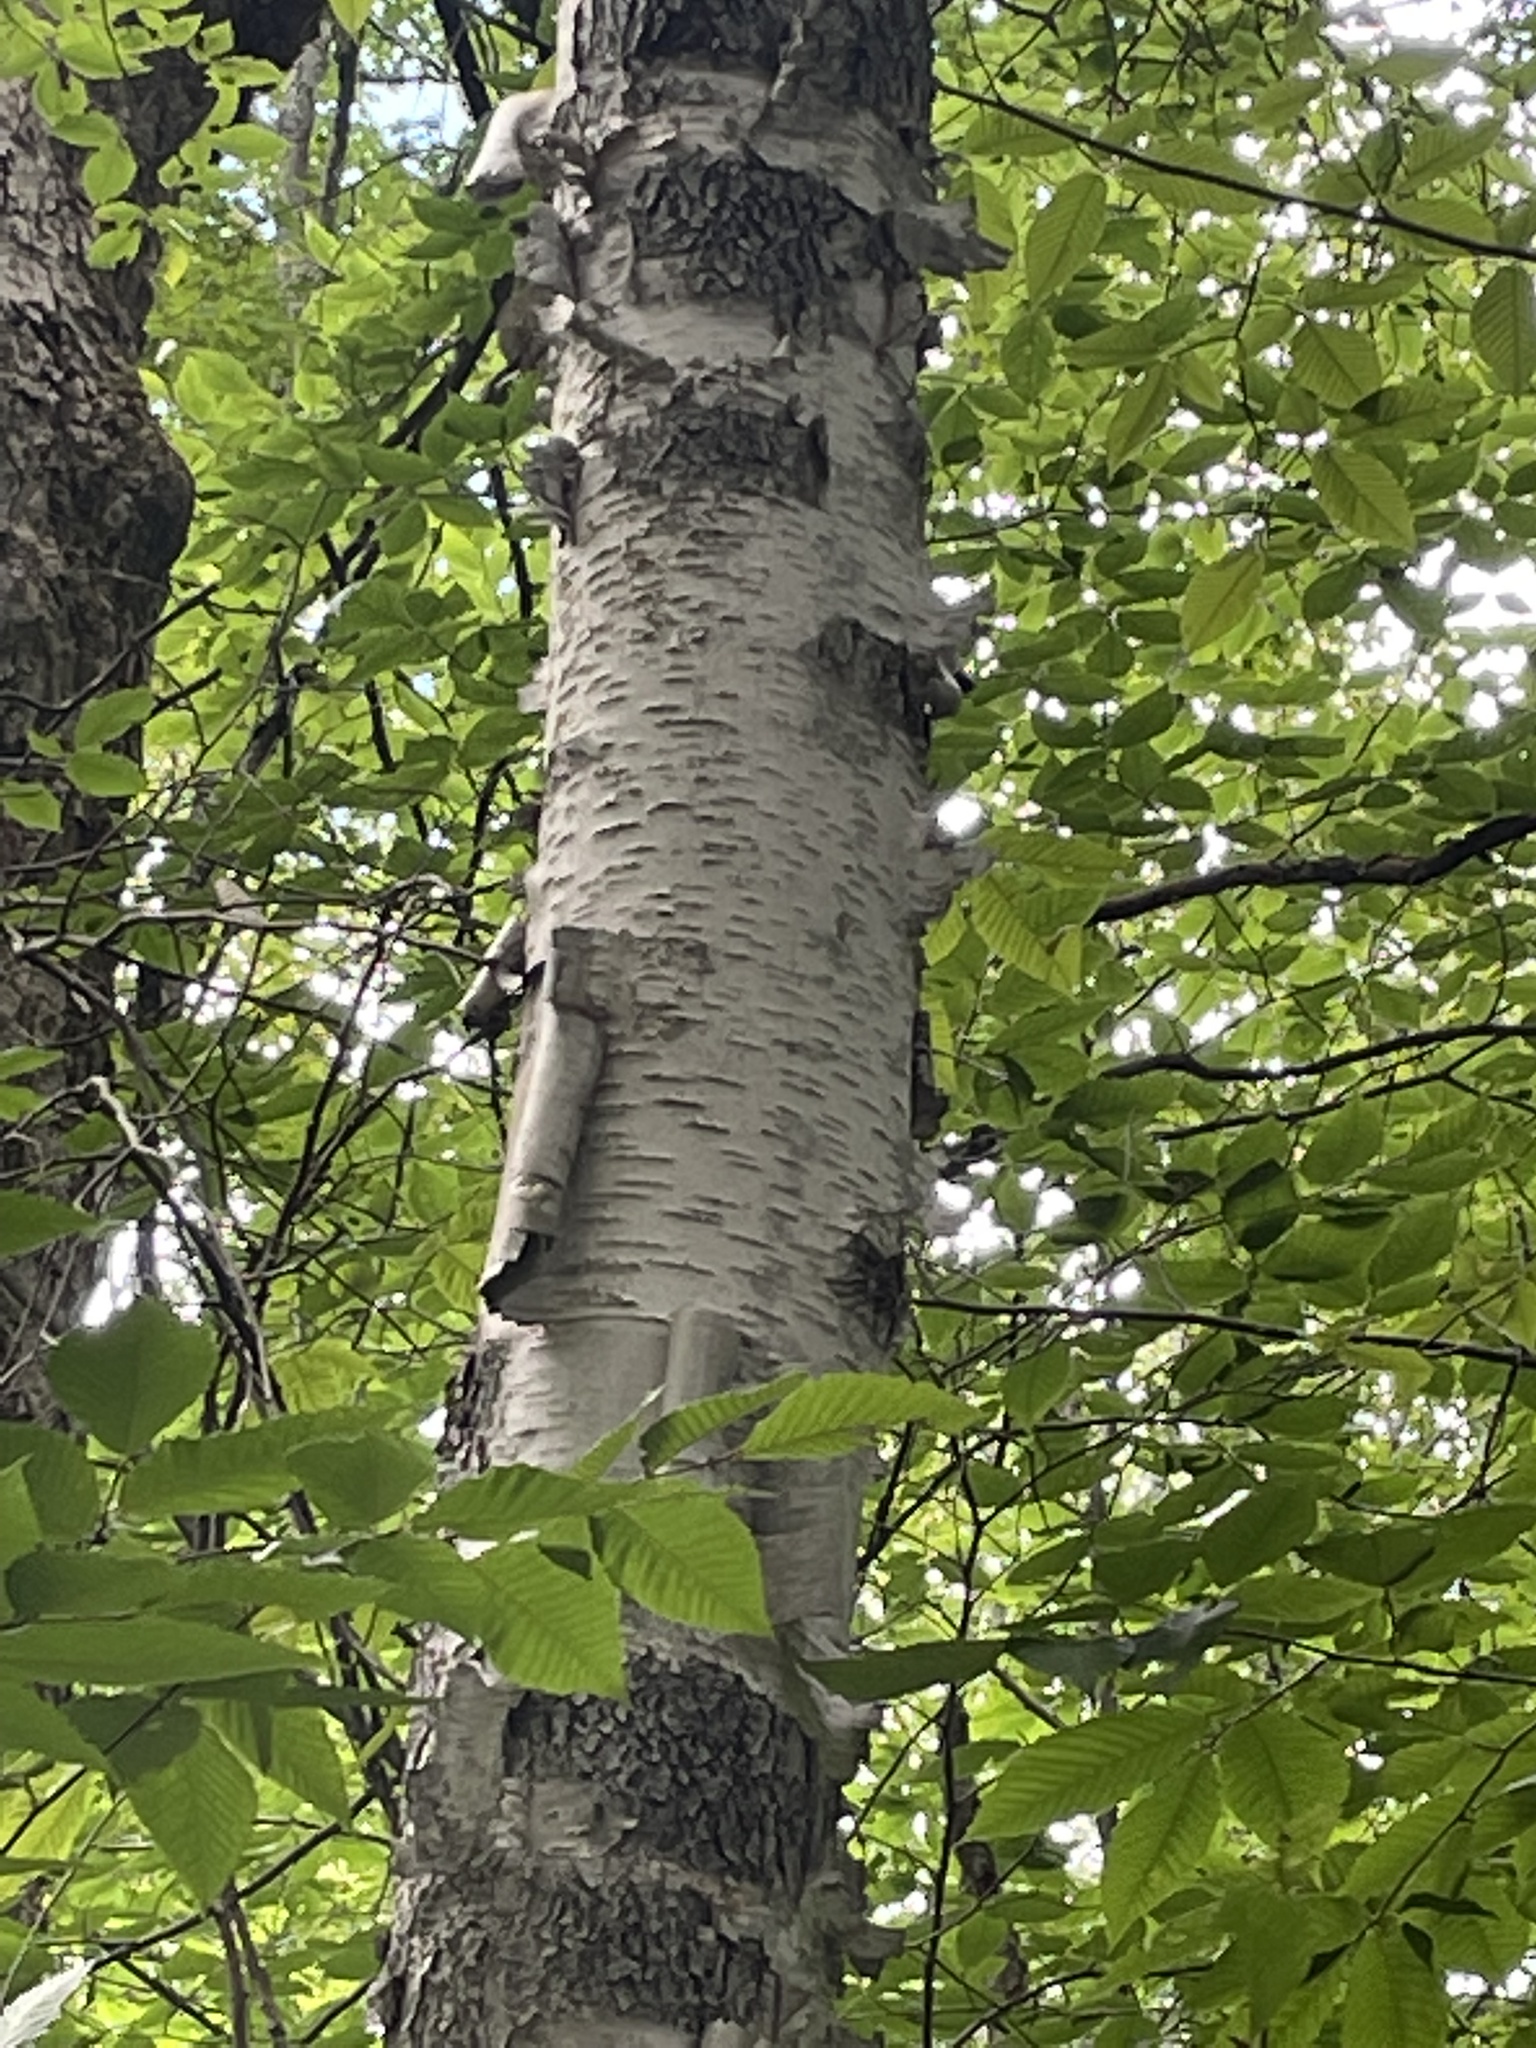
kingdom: Plantae
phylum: Tracheophyta
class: Magnoliopsida
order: Fagales
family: Betulaceae
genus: Betula
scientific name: Betula papyrifera
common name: Paper birch
